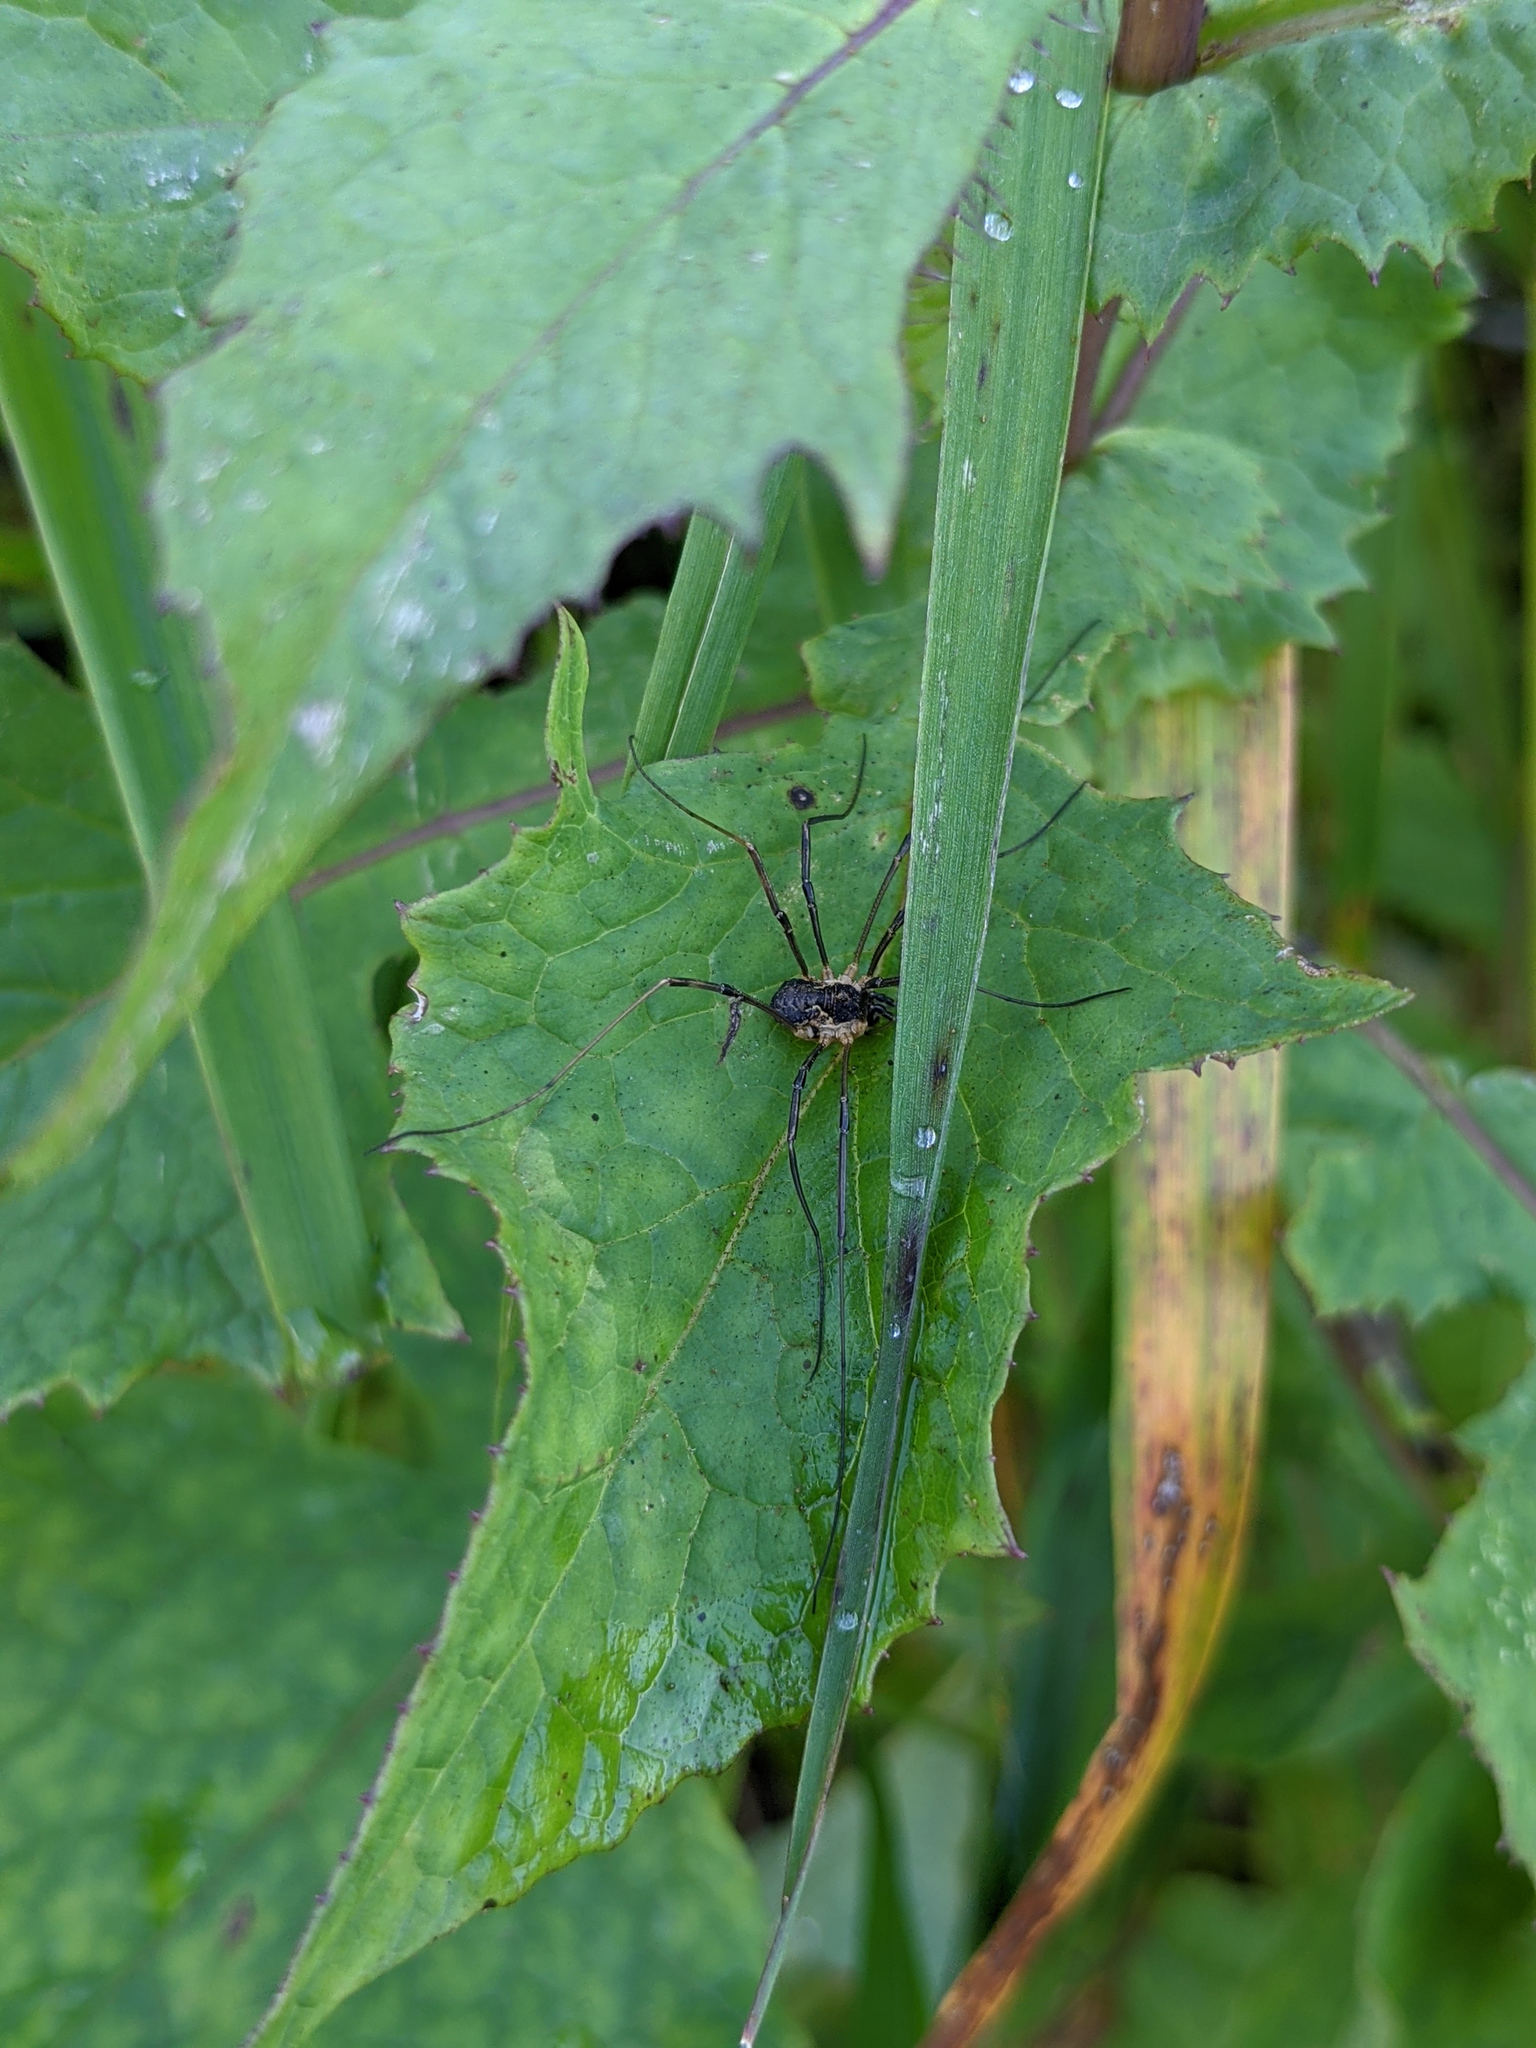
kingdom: Animalia
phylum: Arthropoda
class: Arachnida
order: Opiliones
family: Phalangiidae
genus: Mitopus
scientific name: Mitopus morio
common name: Saddleback harvestman
